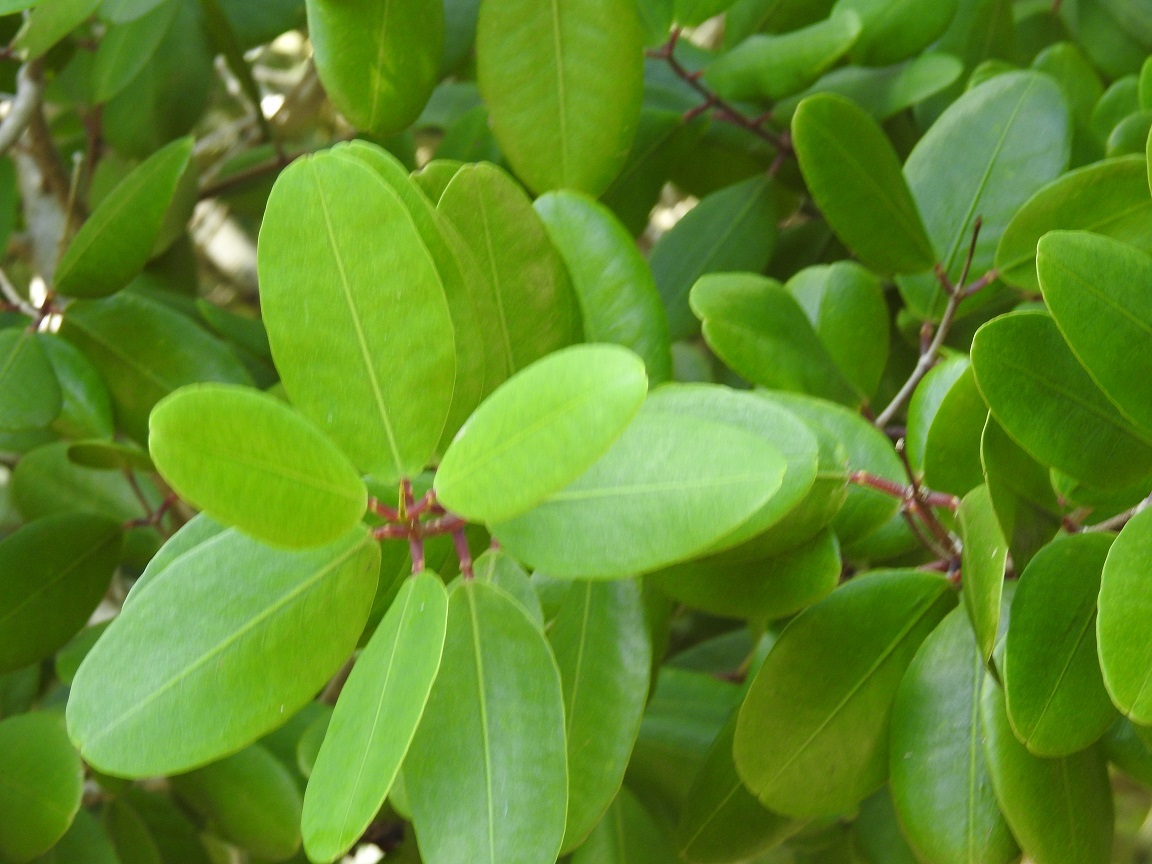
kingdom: Plantae
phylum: Tracheophyta
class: Magnoliopsida
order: Myrtales
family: Combretaceae
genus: Laguncularia
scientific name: Laguncularia racemosa
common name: White mangrove
